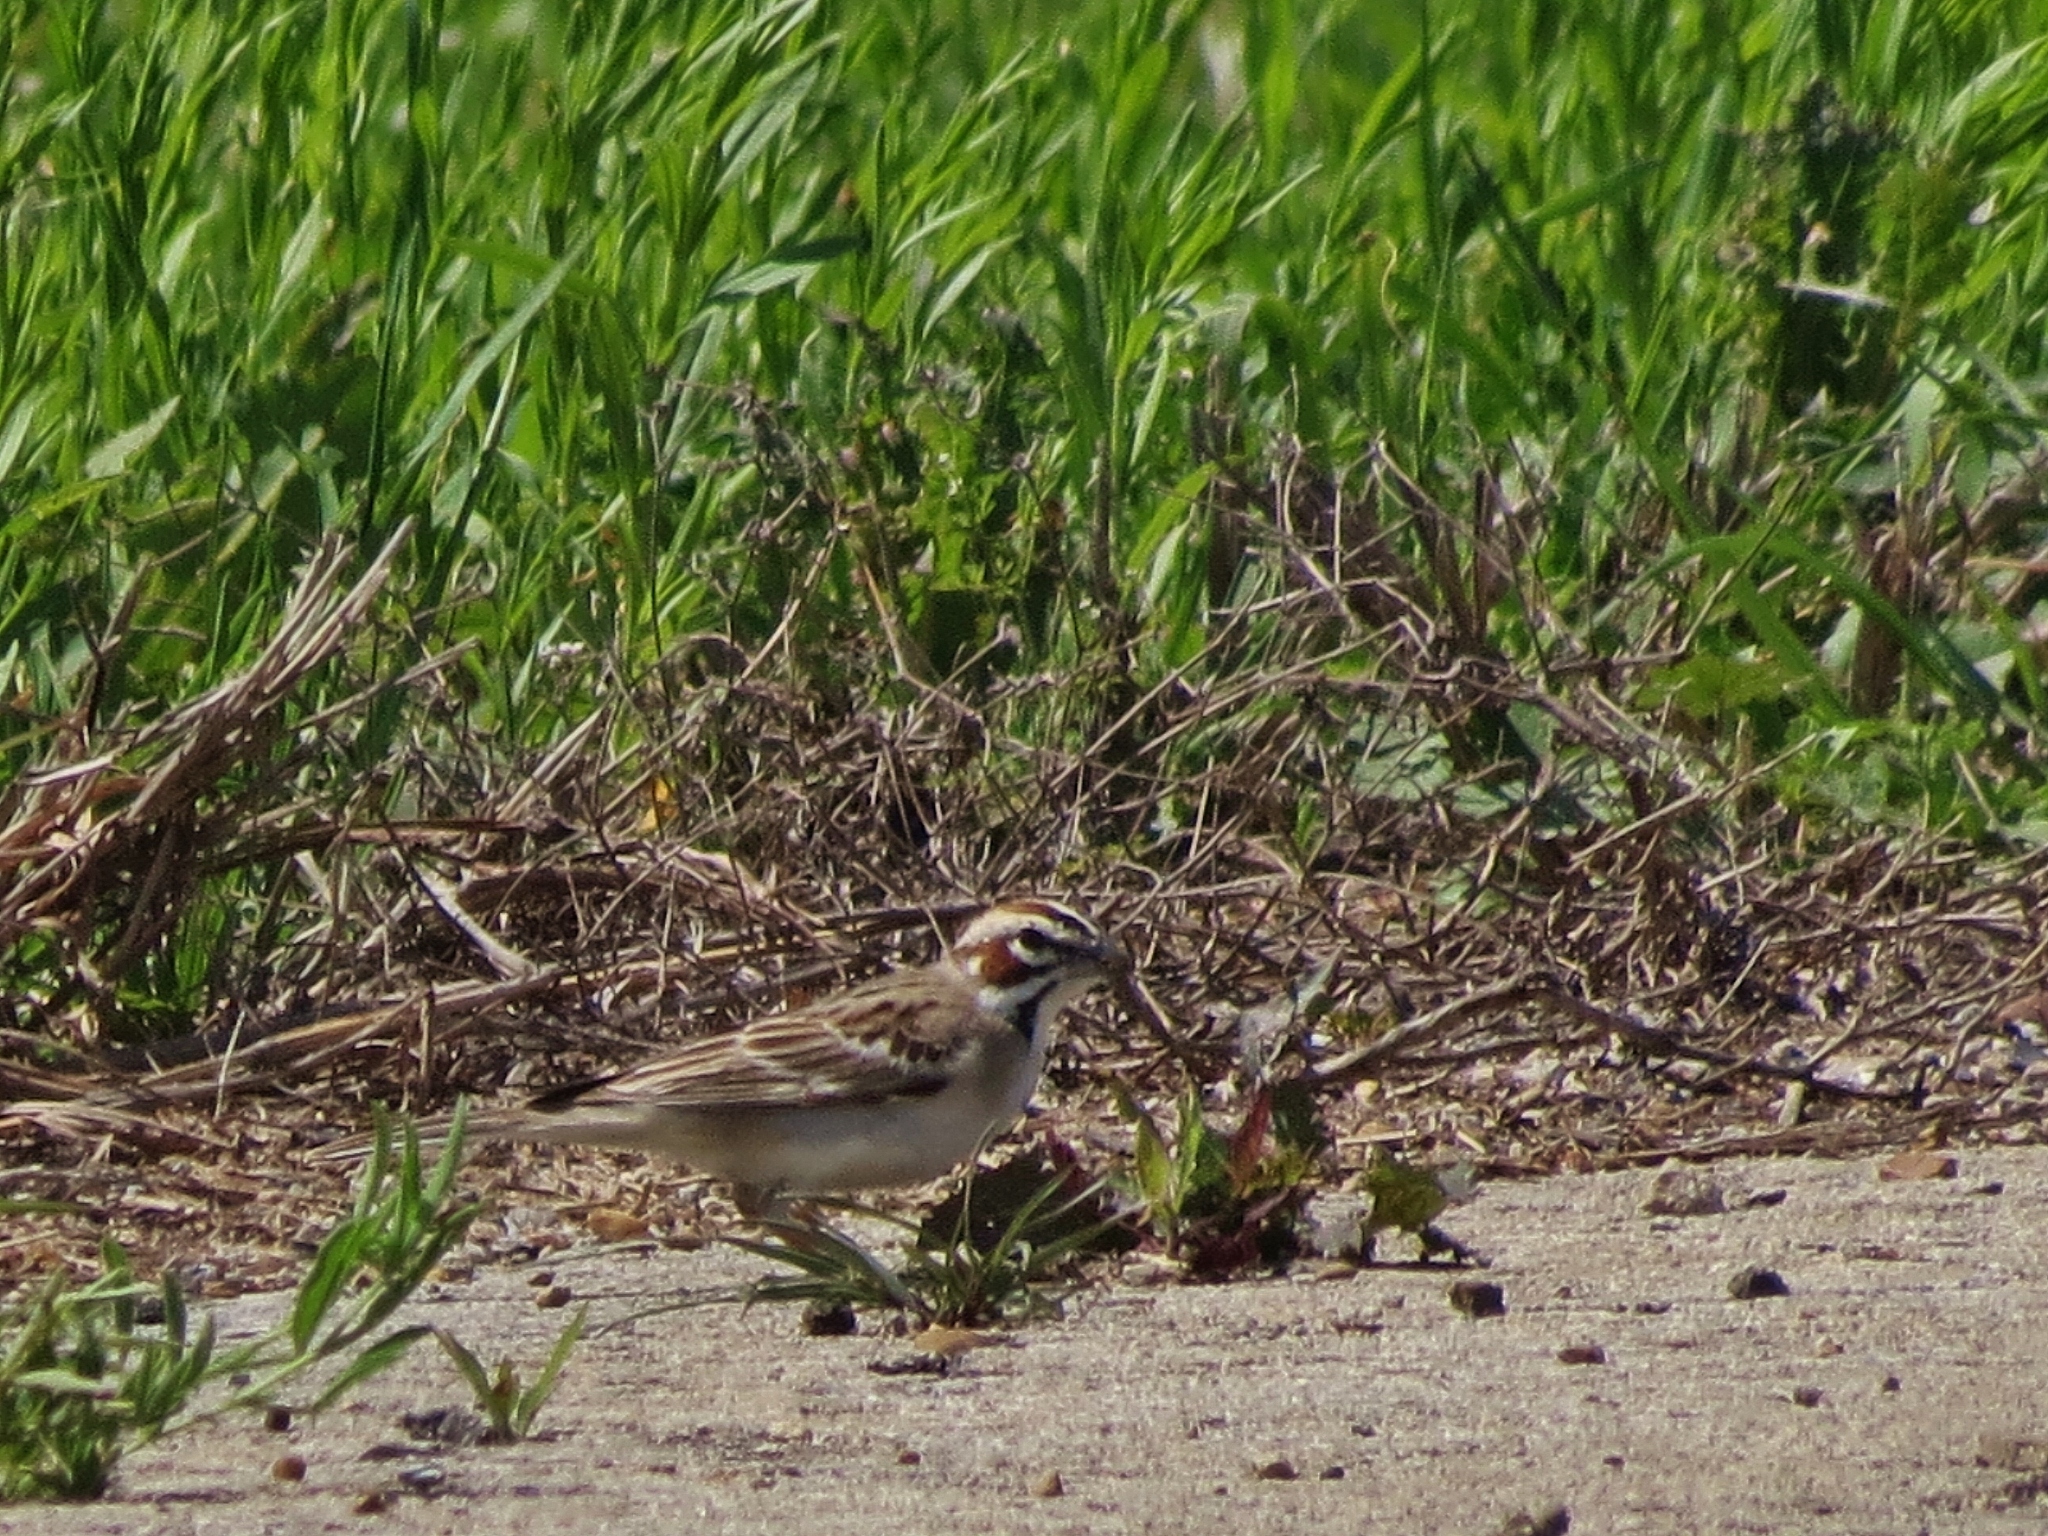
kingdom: Animalia
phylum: Chordata
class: Aves
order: Passeriformes
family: Passerellidae
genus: Chondestes
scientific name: Chondestes grammacus
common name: Lark sparrow
